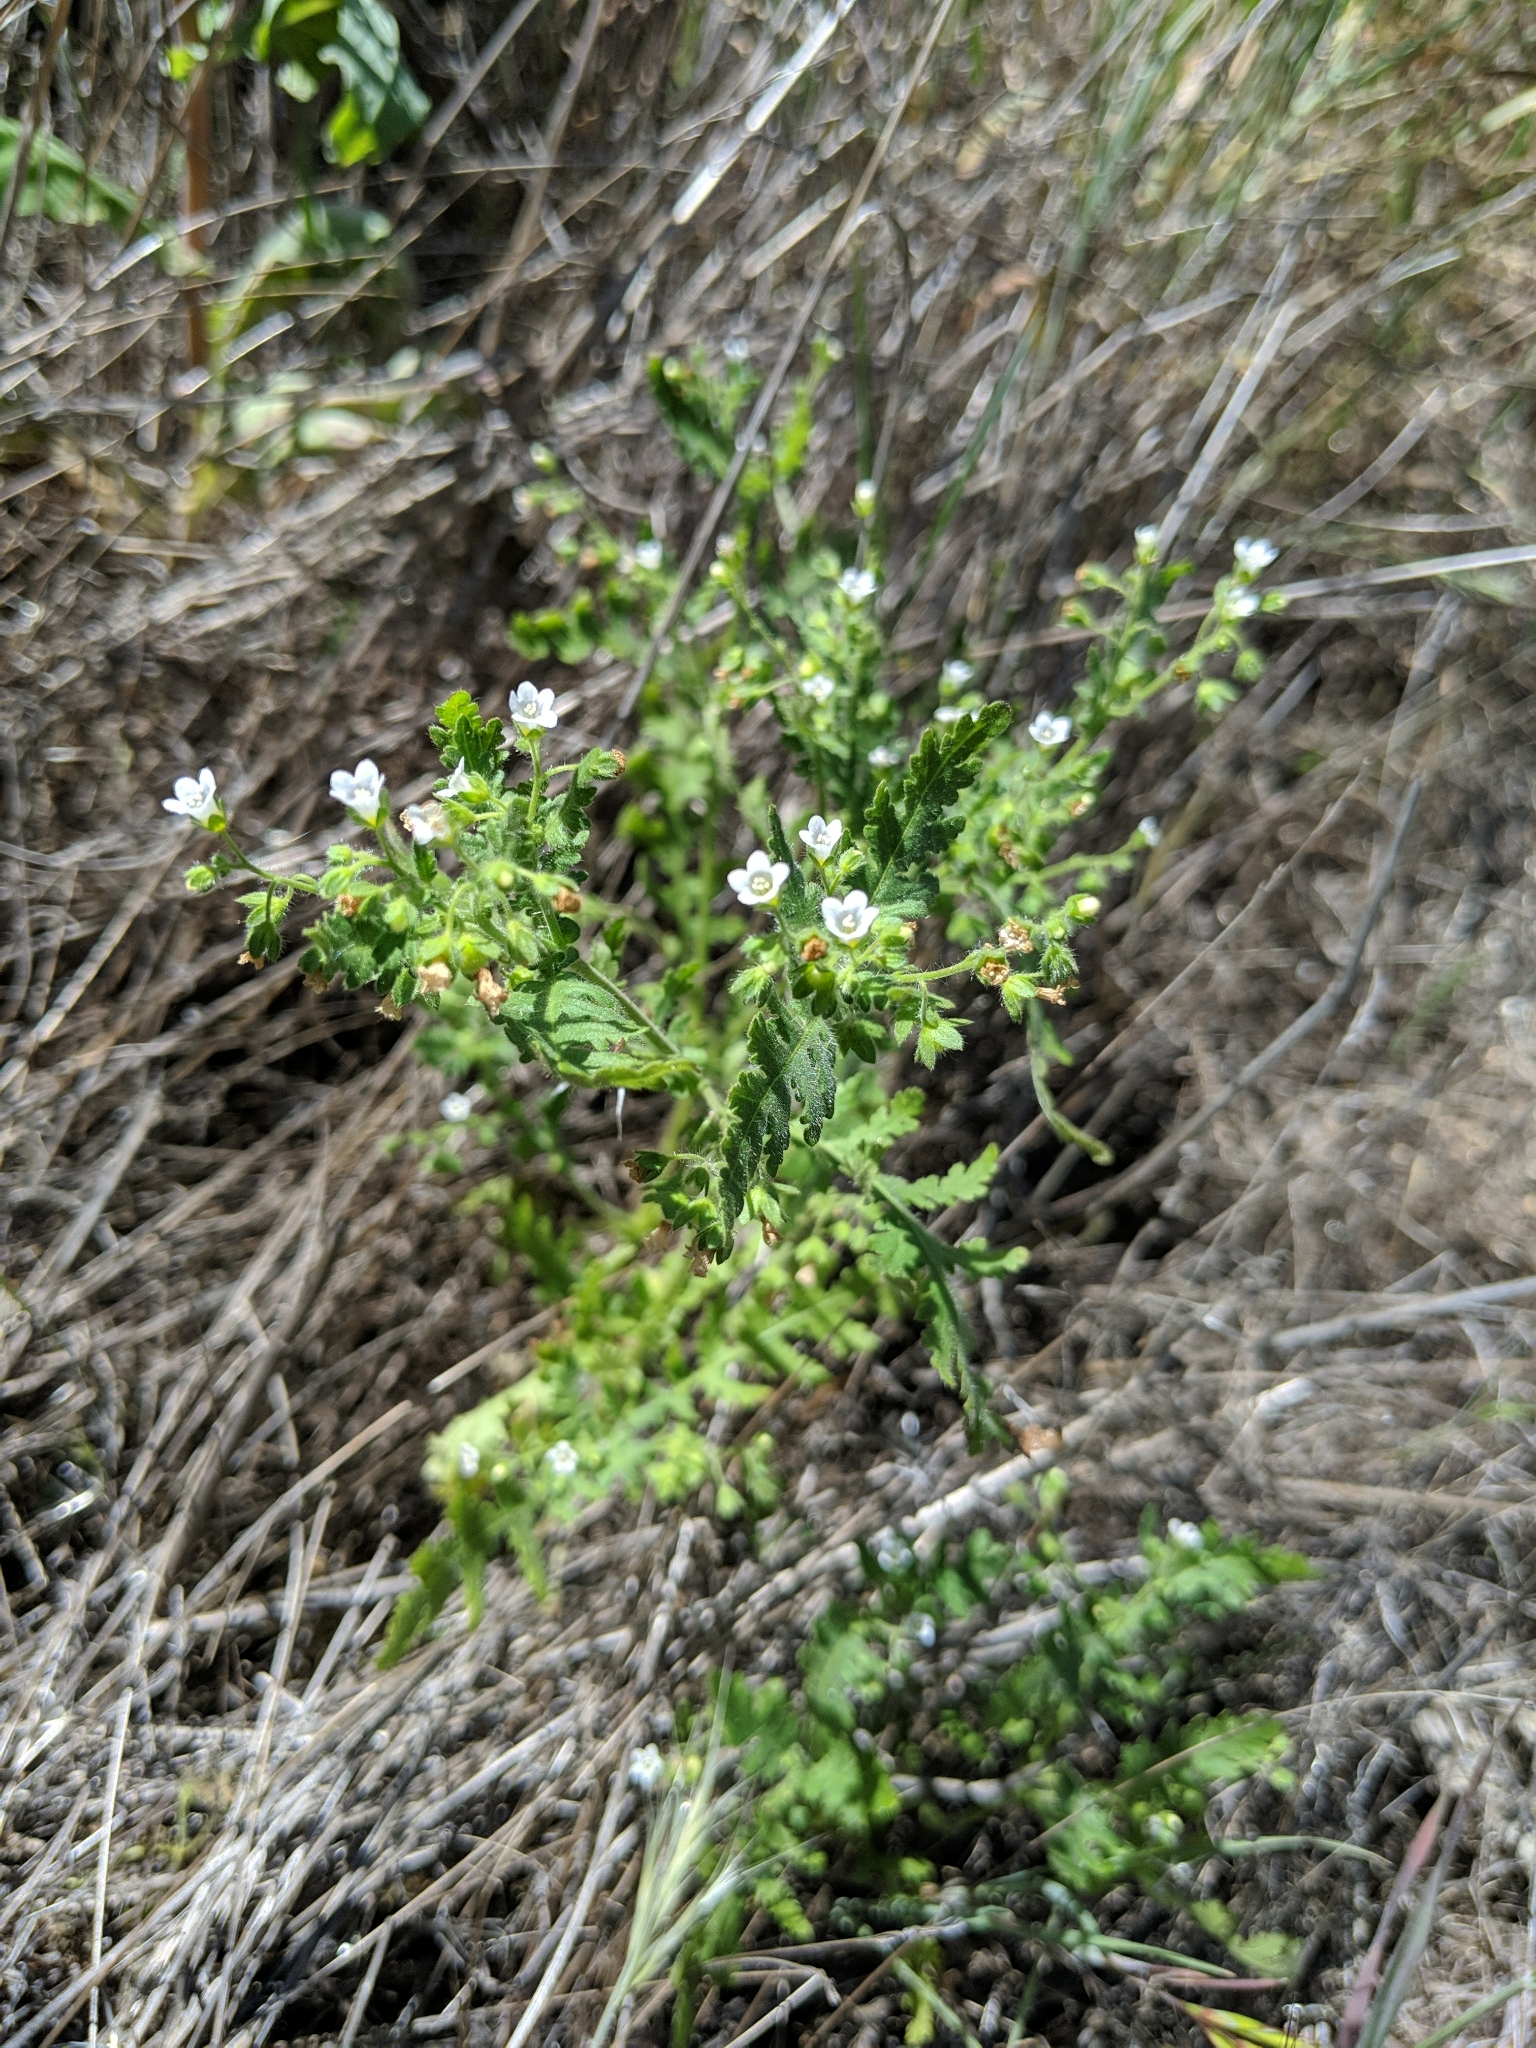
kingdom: Plantae
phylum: Tracheophyta
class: Magnoliopsida
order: Boraginales
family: Hydrophyllaceae
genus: Eucrypta
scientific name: Eucrypta chrysanthemifolia
